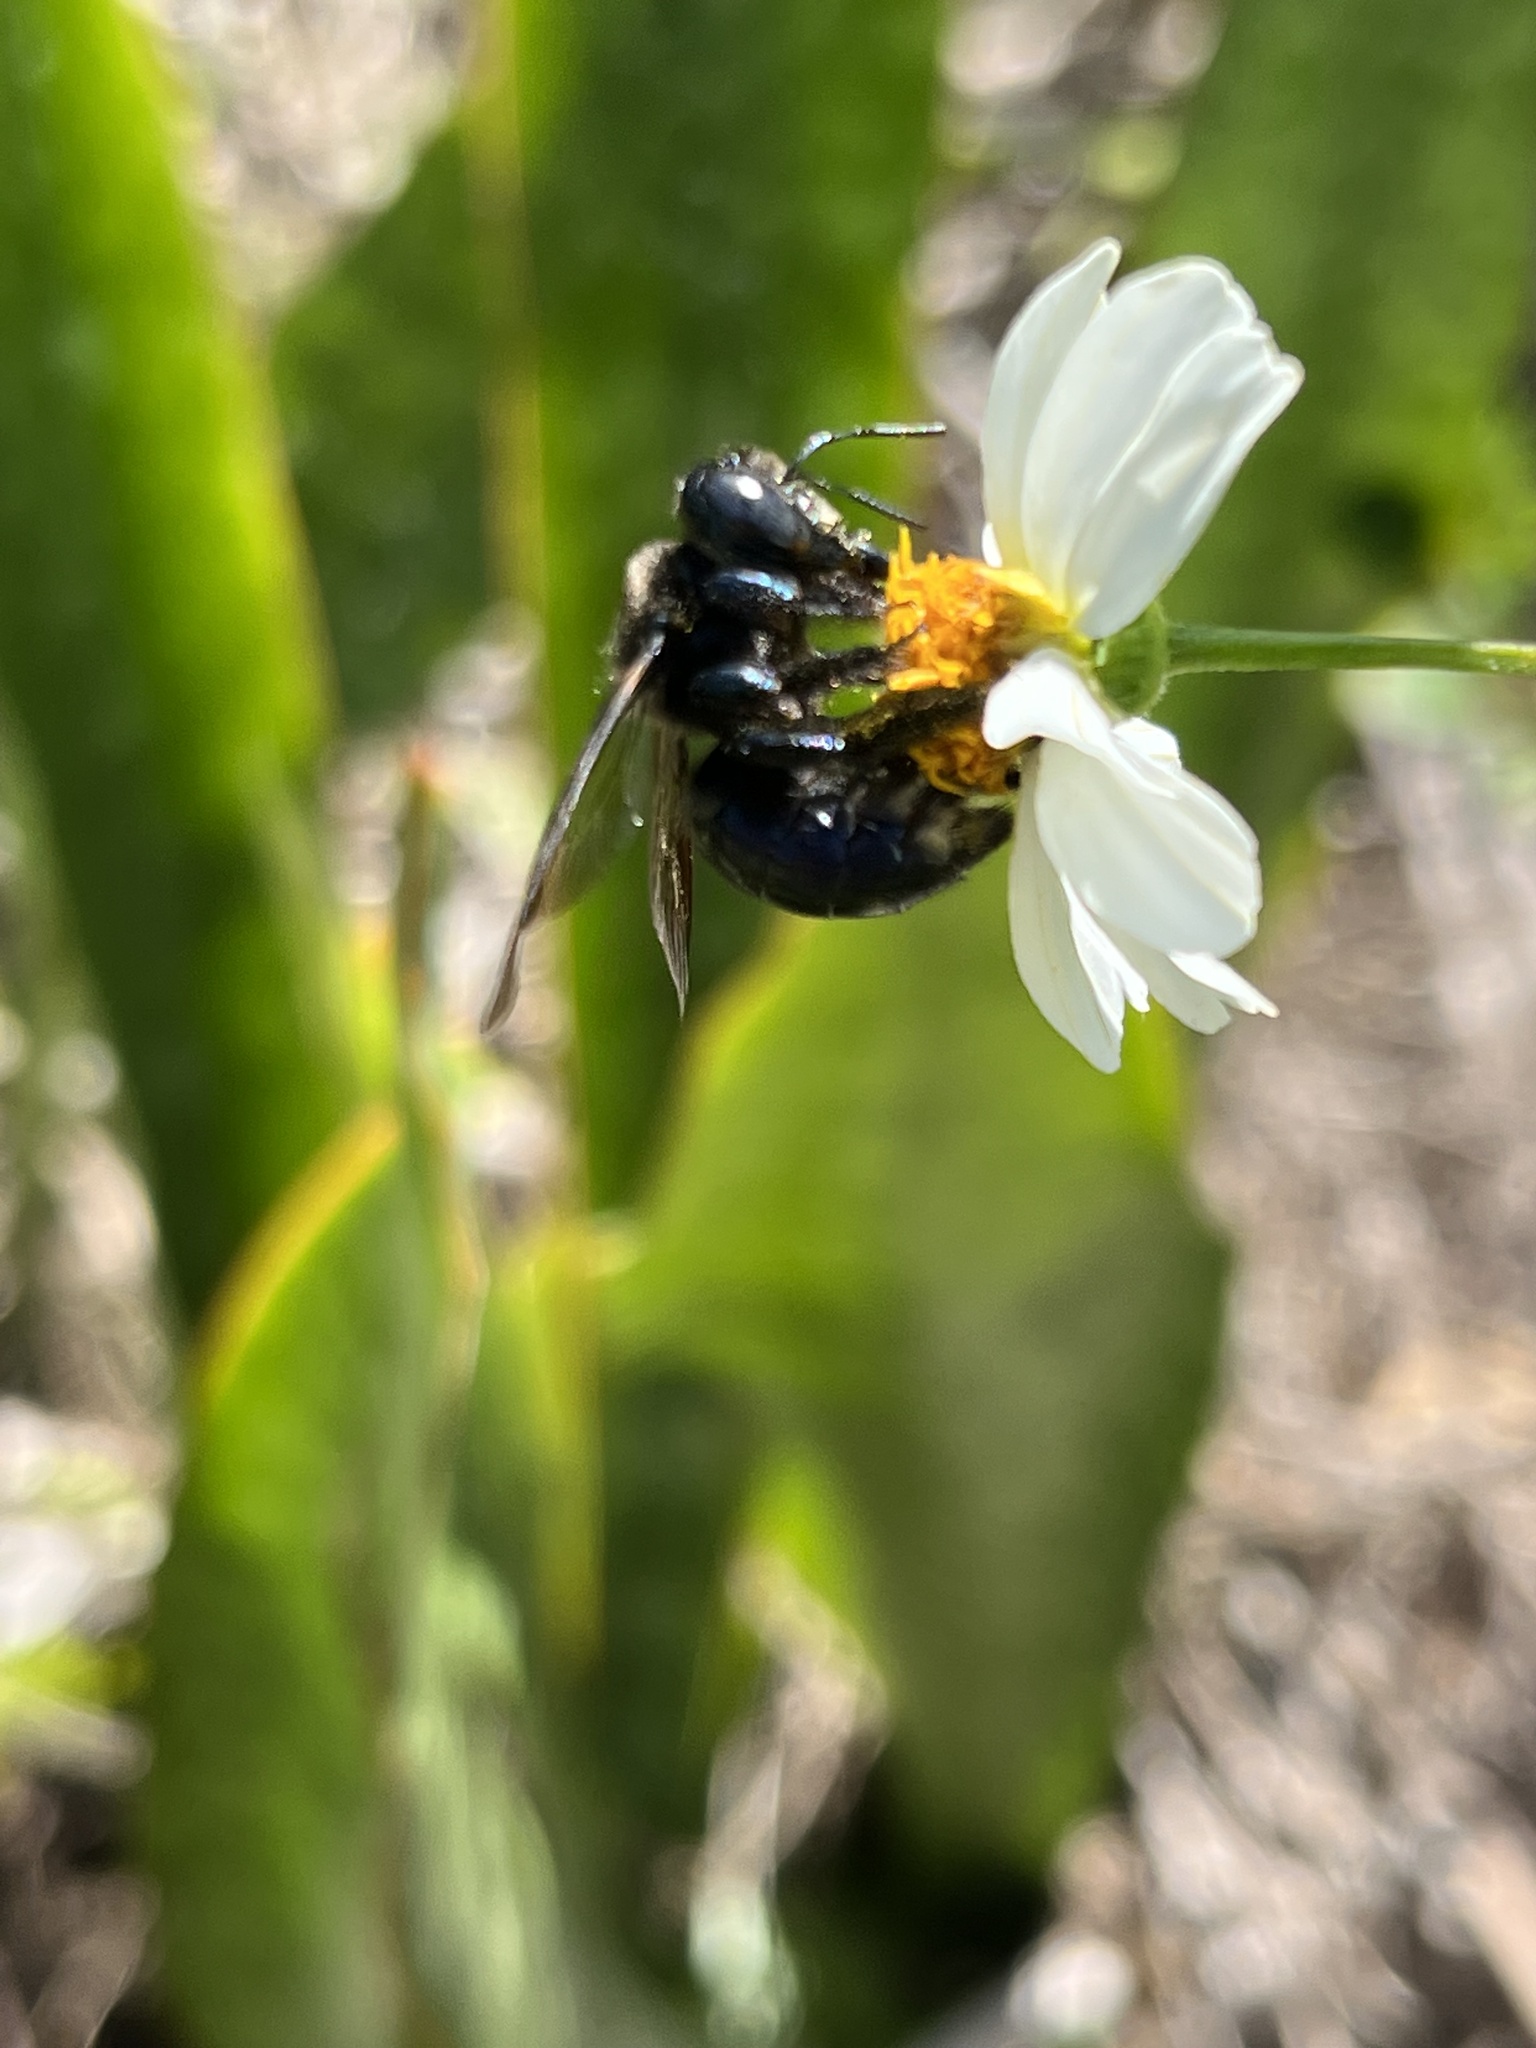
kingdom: Animalia
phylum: Arthropoda
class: Insecta
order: Hymenoptera
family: Apidae
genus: Xylocopa
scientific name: Xylocopa micans
